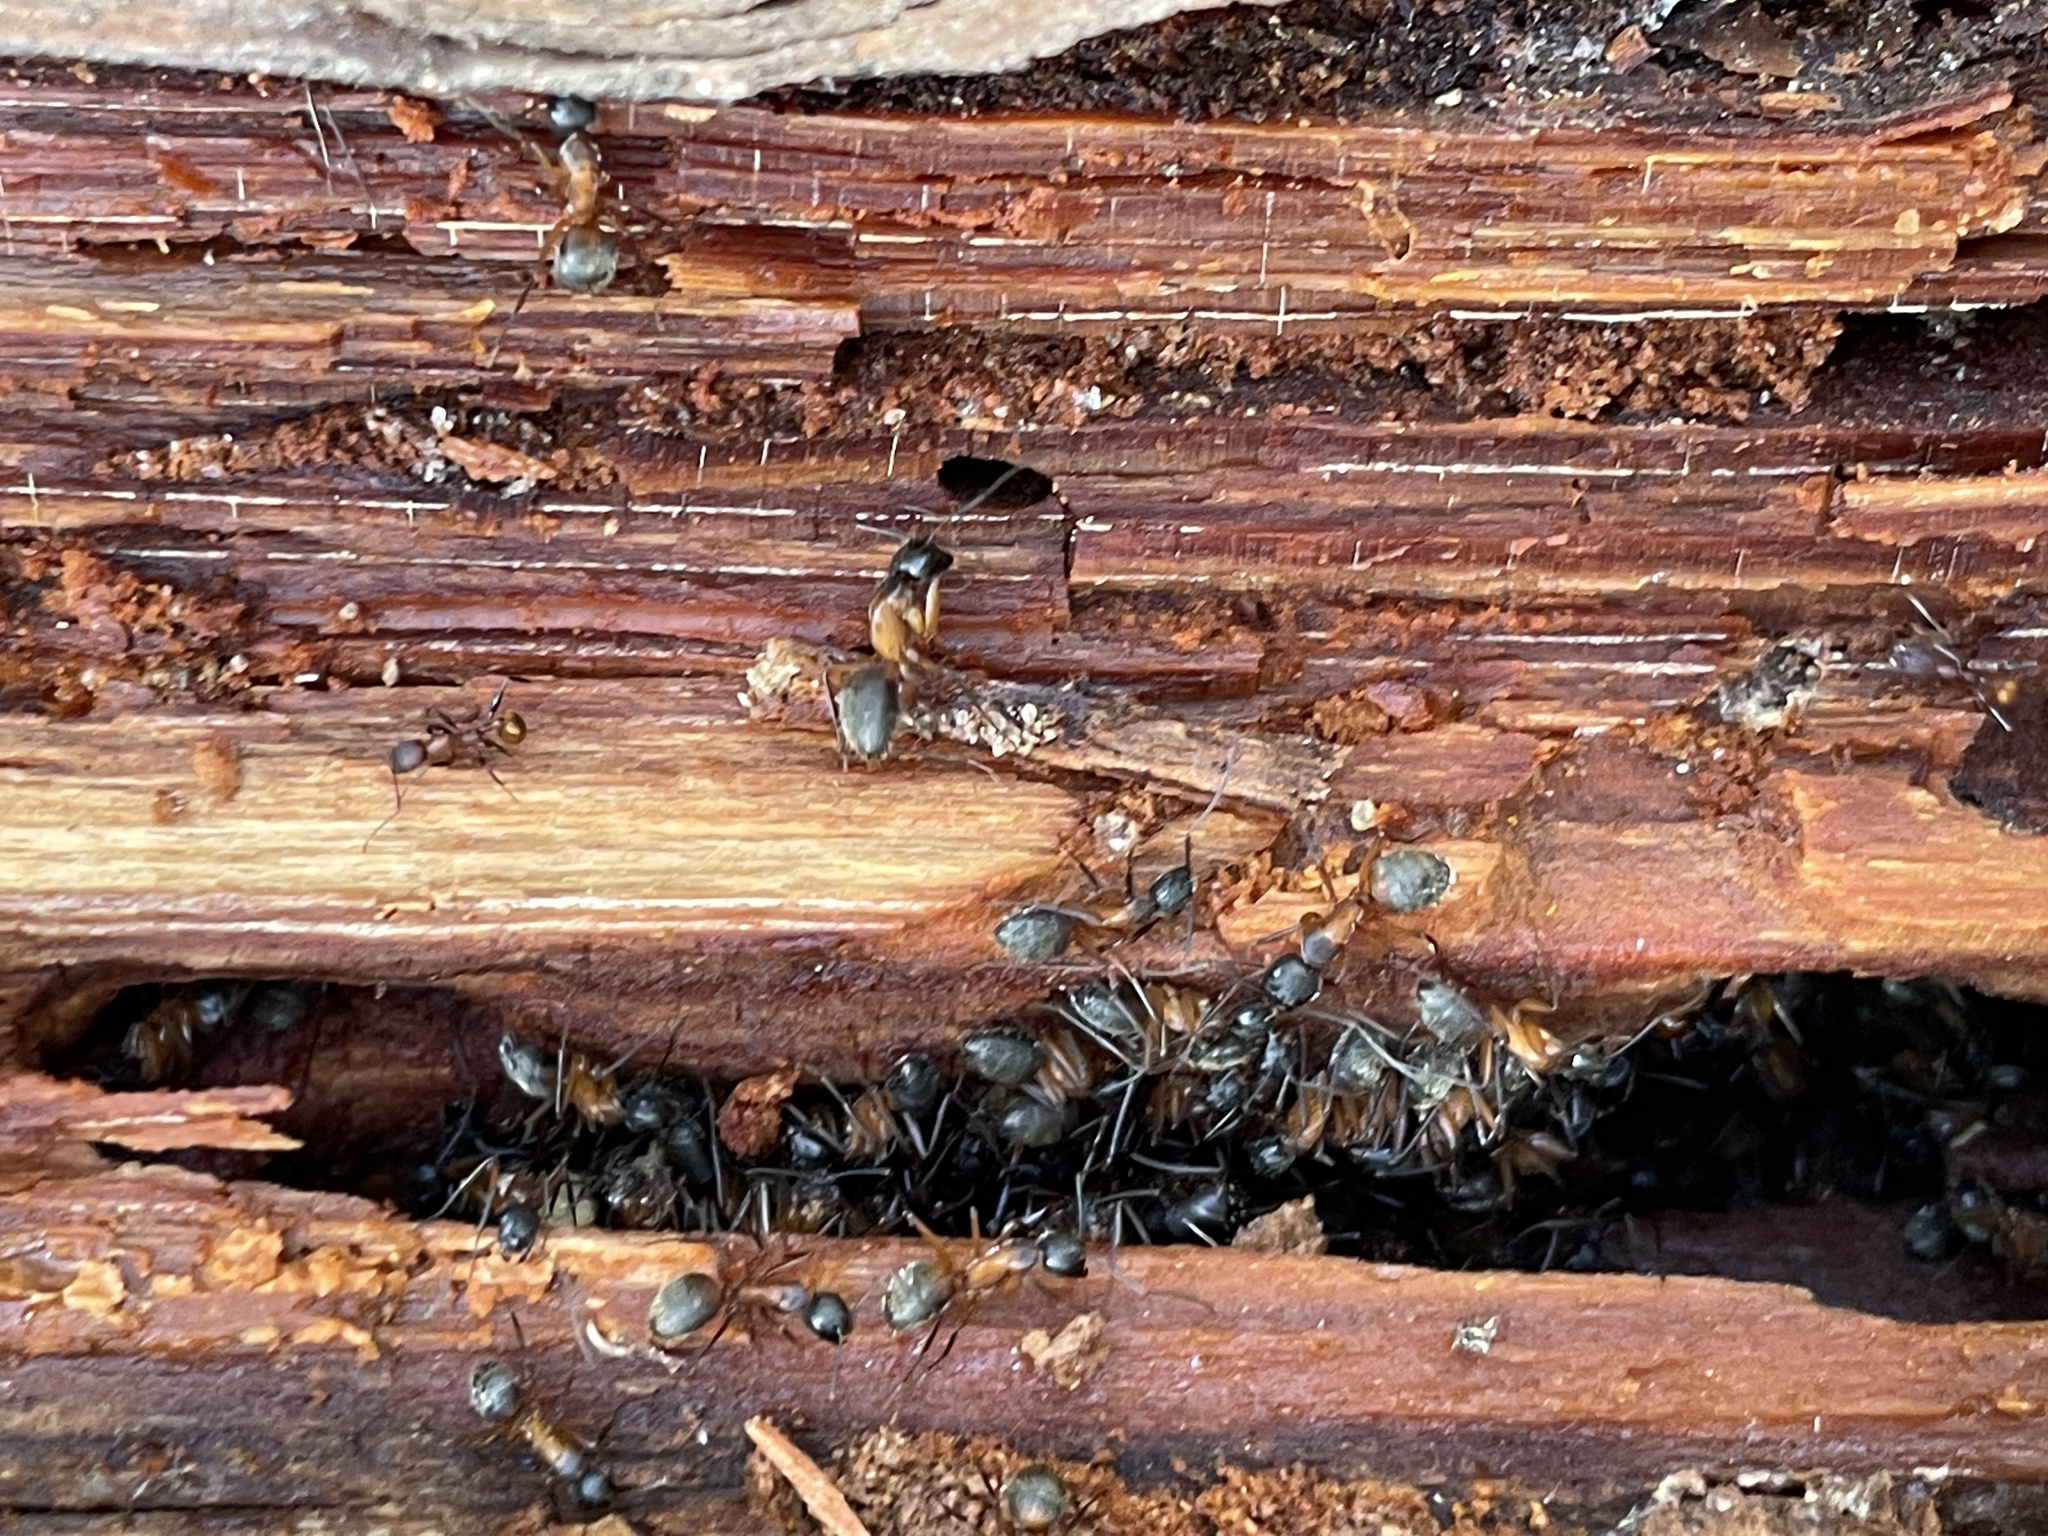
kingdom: Animalia
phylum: Arthropoda
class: Insecta
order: Hymenoptera
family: Formicidae
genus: Camponotus
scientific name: Camponotus chromaiodes
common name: Red carpenter ant
